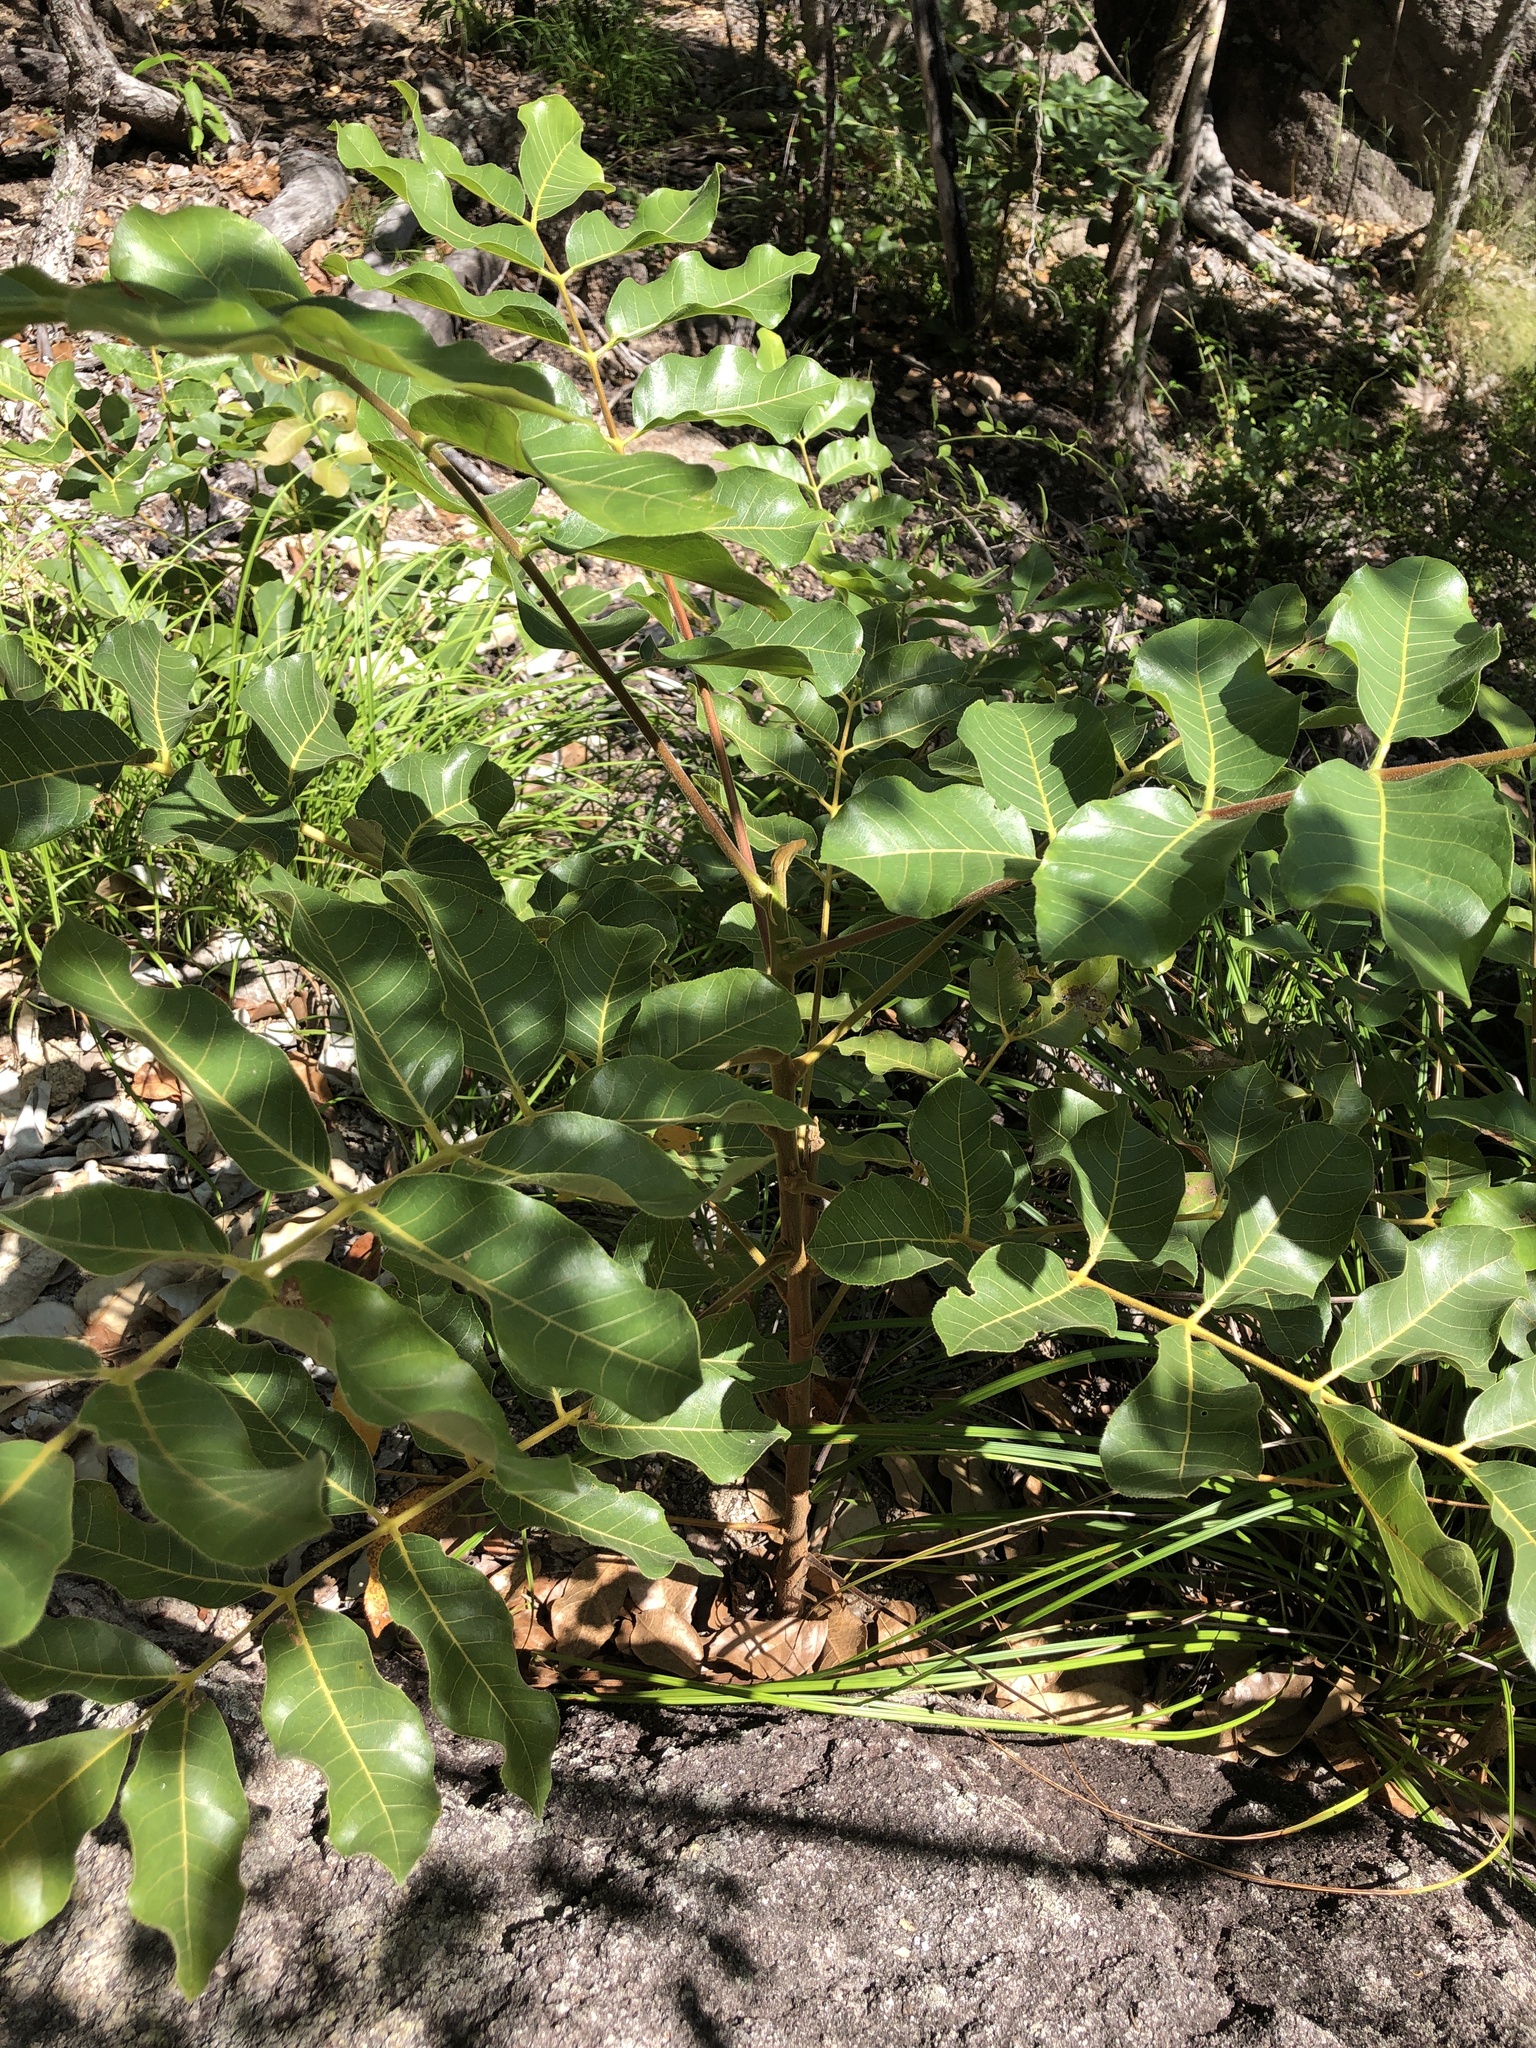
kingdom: Plantae
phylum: Tracheophyta
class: Magnoliopsida
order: Sapindales
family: Burseraceae
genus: Canarium
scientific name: Canarium australianum
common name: Island white-beech
